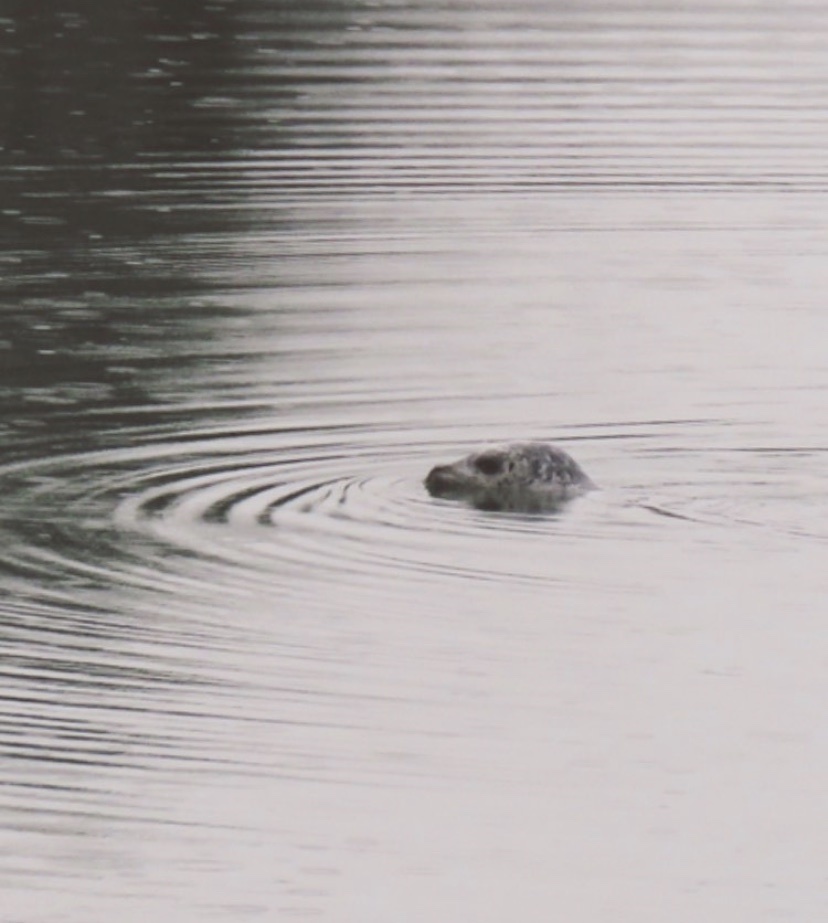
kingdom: Animalia
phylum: Chordata
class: Mammalia
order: Carnivora
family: Phocidae
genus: Phoca
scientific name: Phoca vitulina
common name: Harbor seal
